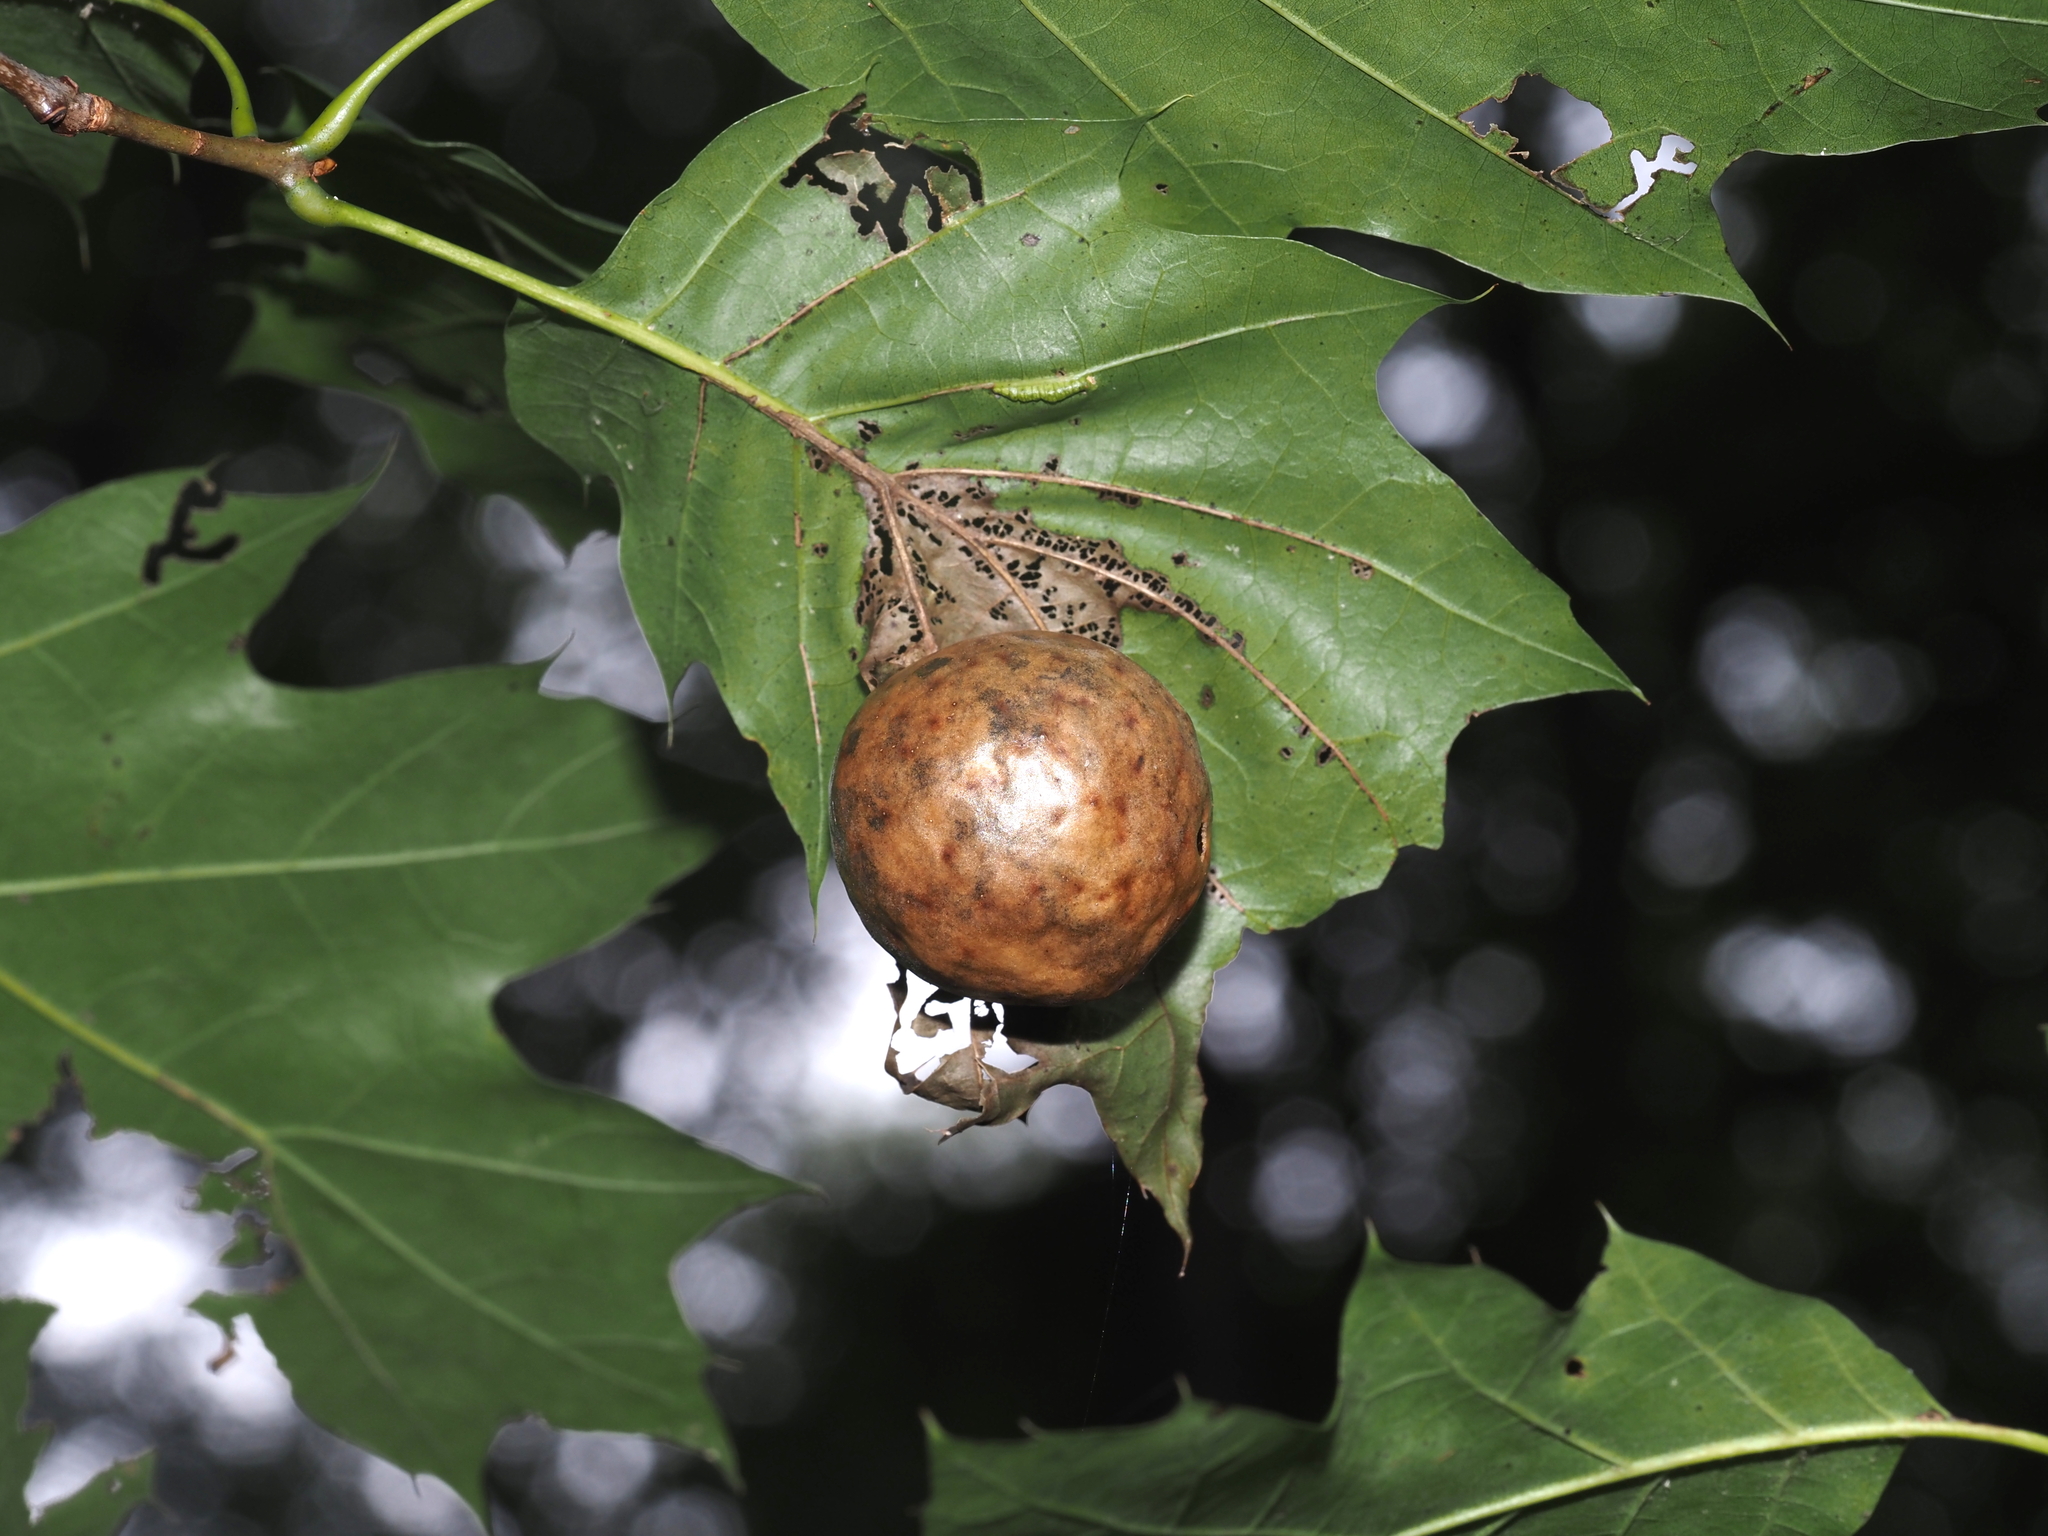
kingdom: Animalia
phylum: Arthropoda
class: Insecta
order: Hymenoptera
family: Cynipidae
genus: Amphibolips
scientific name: Amphibolips
